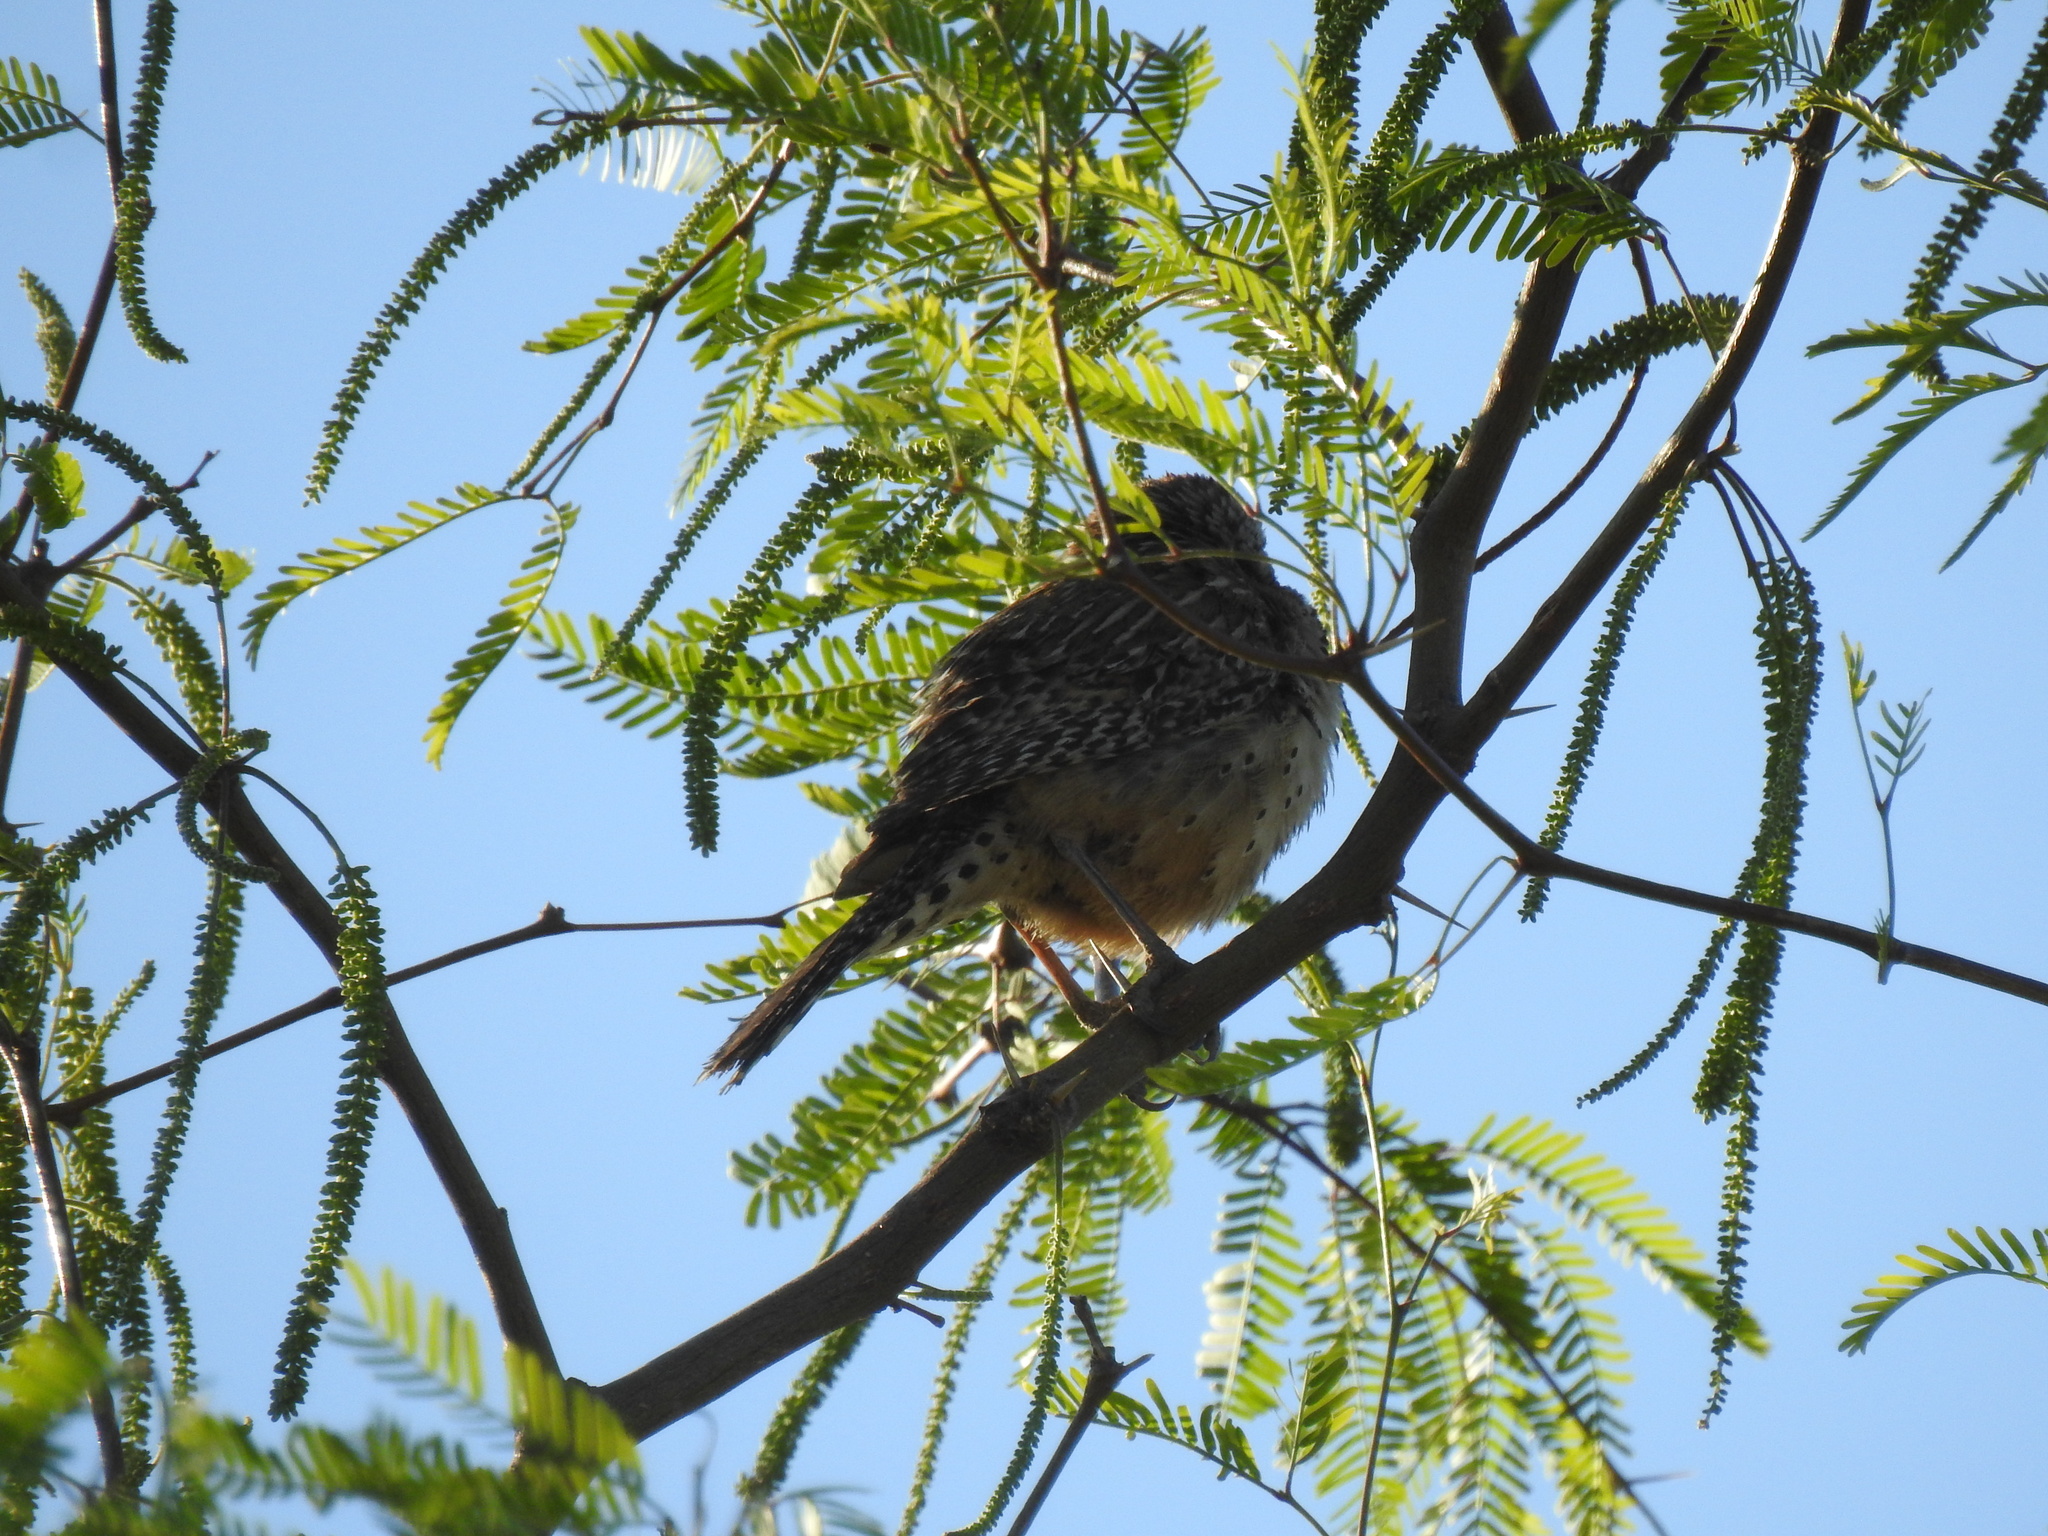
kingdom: Animalia
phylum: Chordata
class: Aves
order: Passeriformes
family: Troglodytidae
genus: Campylorhynchus
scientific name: Campylorhynchus brunneicapillus
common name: Cactus wren
